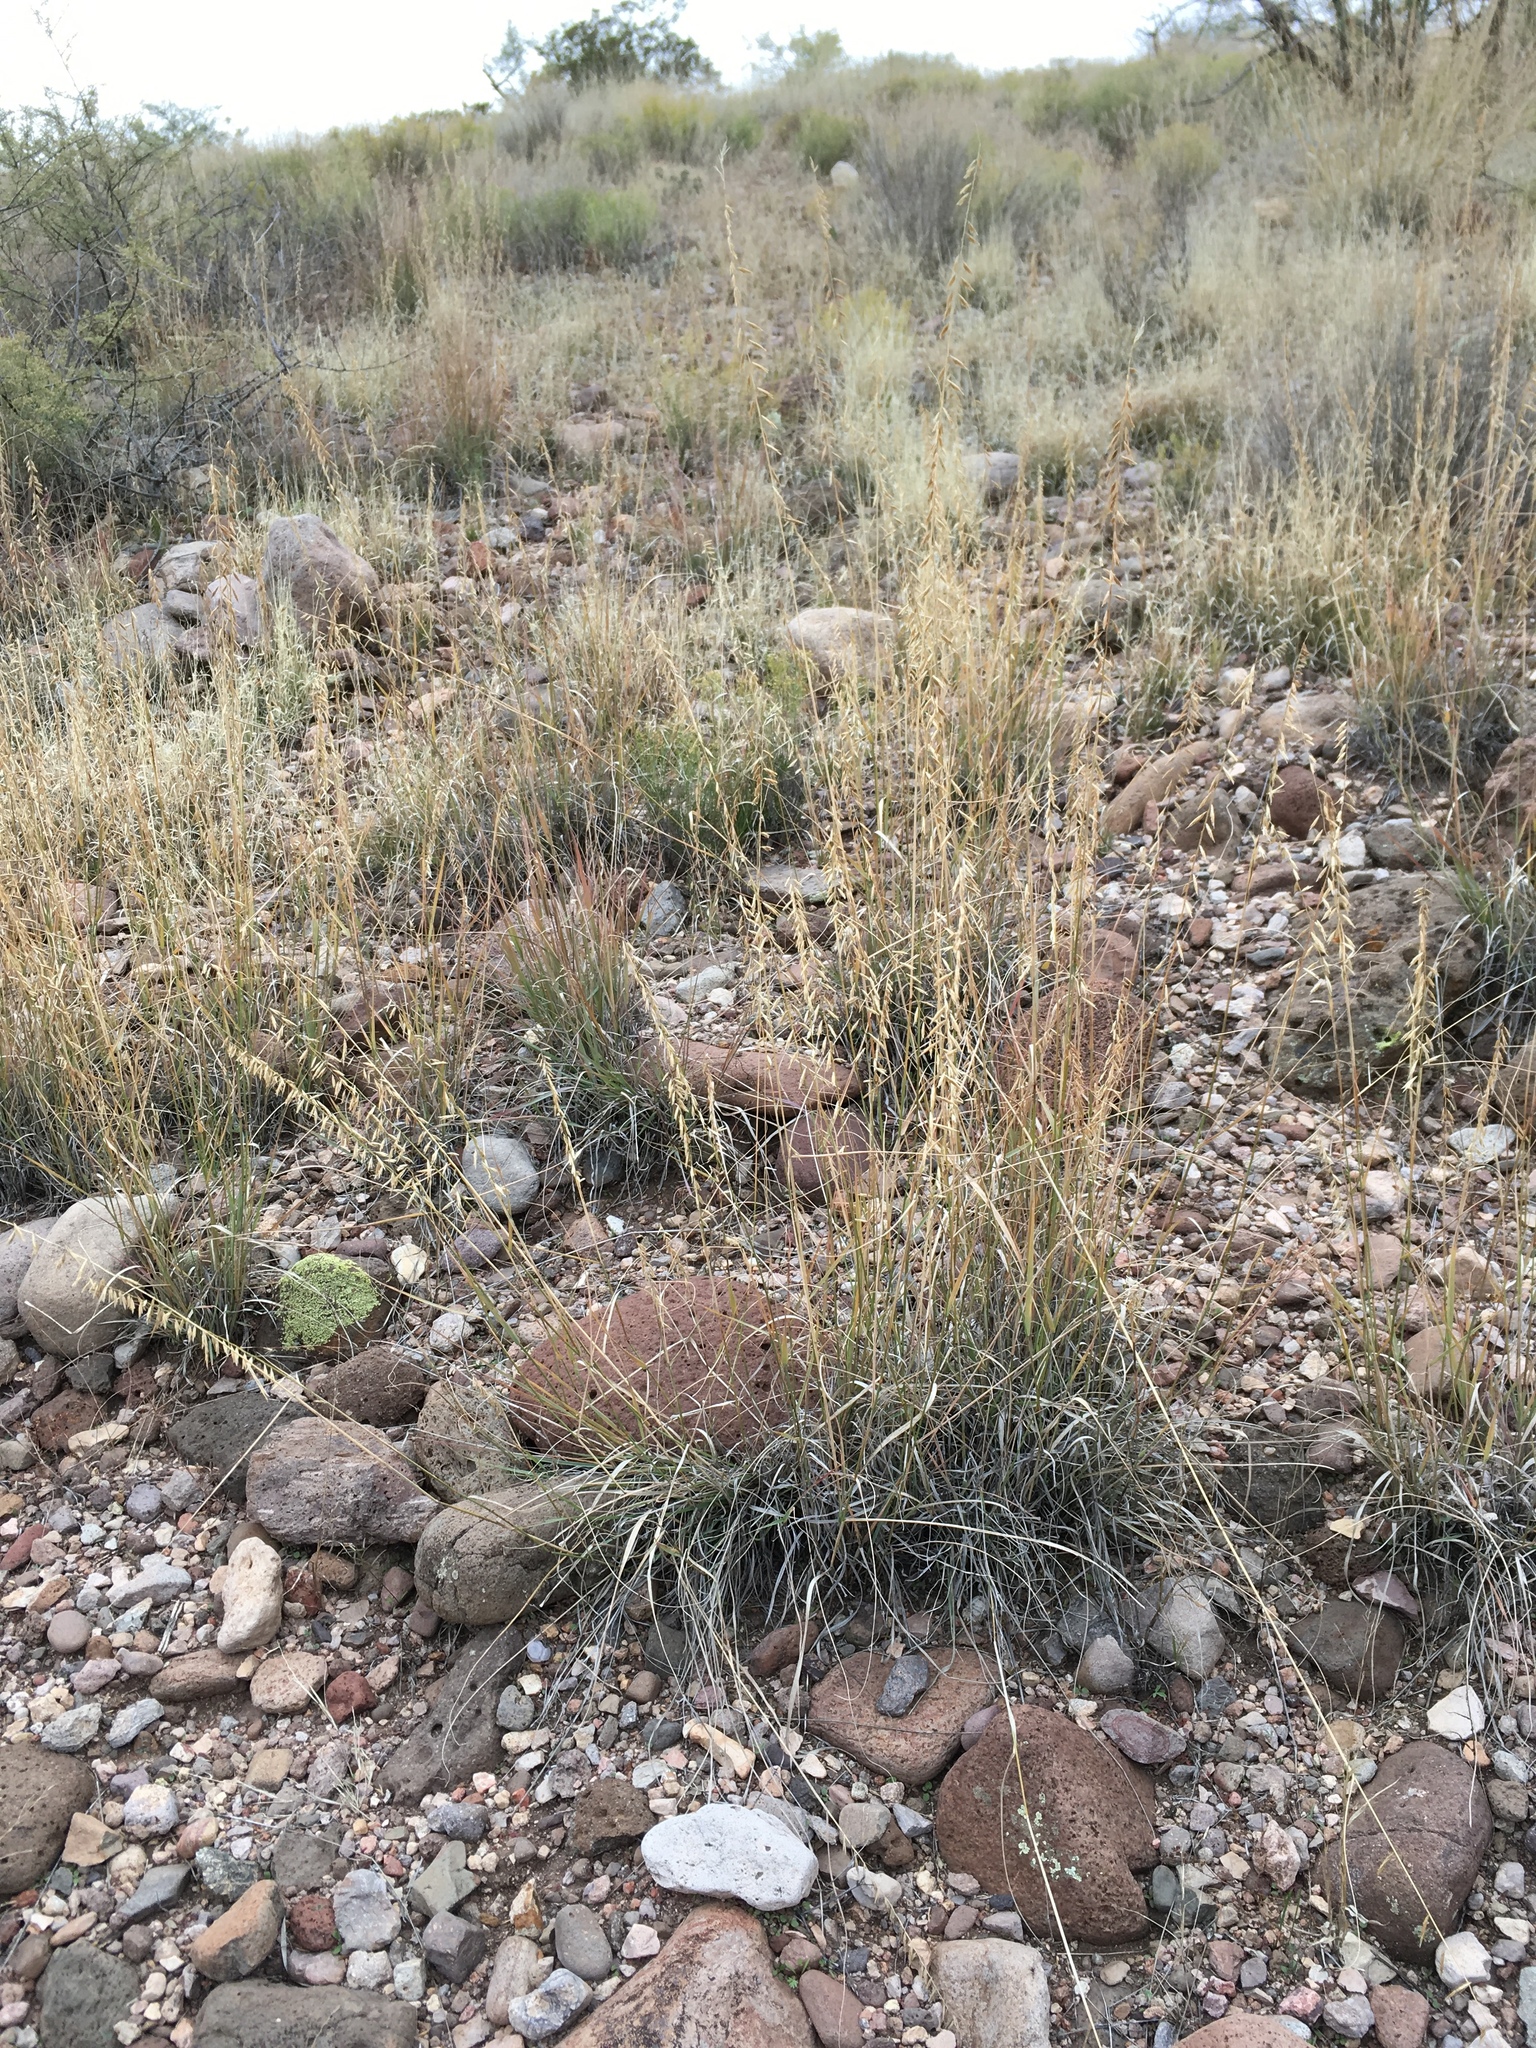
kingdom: Plantae
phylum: Tracheophyta
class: Liliopsida
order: Poales
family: Poaceae
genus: Bouteloua
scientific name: Bouteloua curtipendula
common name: Side-oats grama
